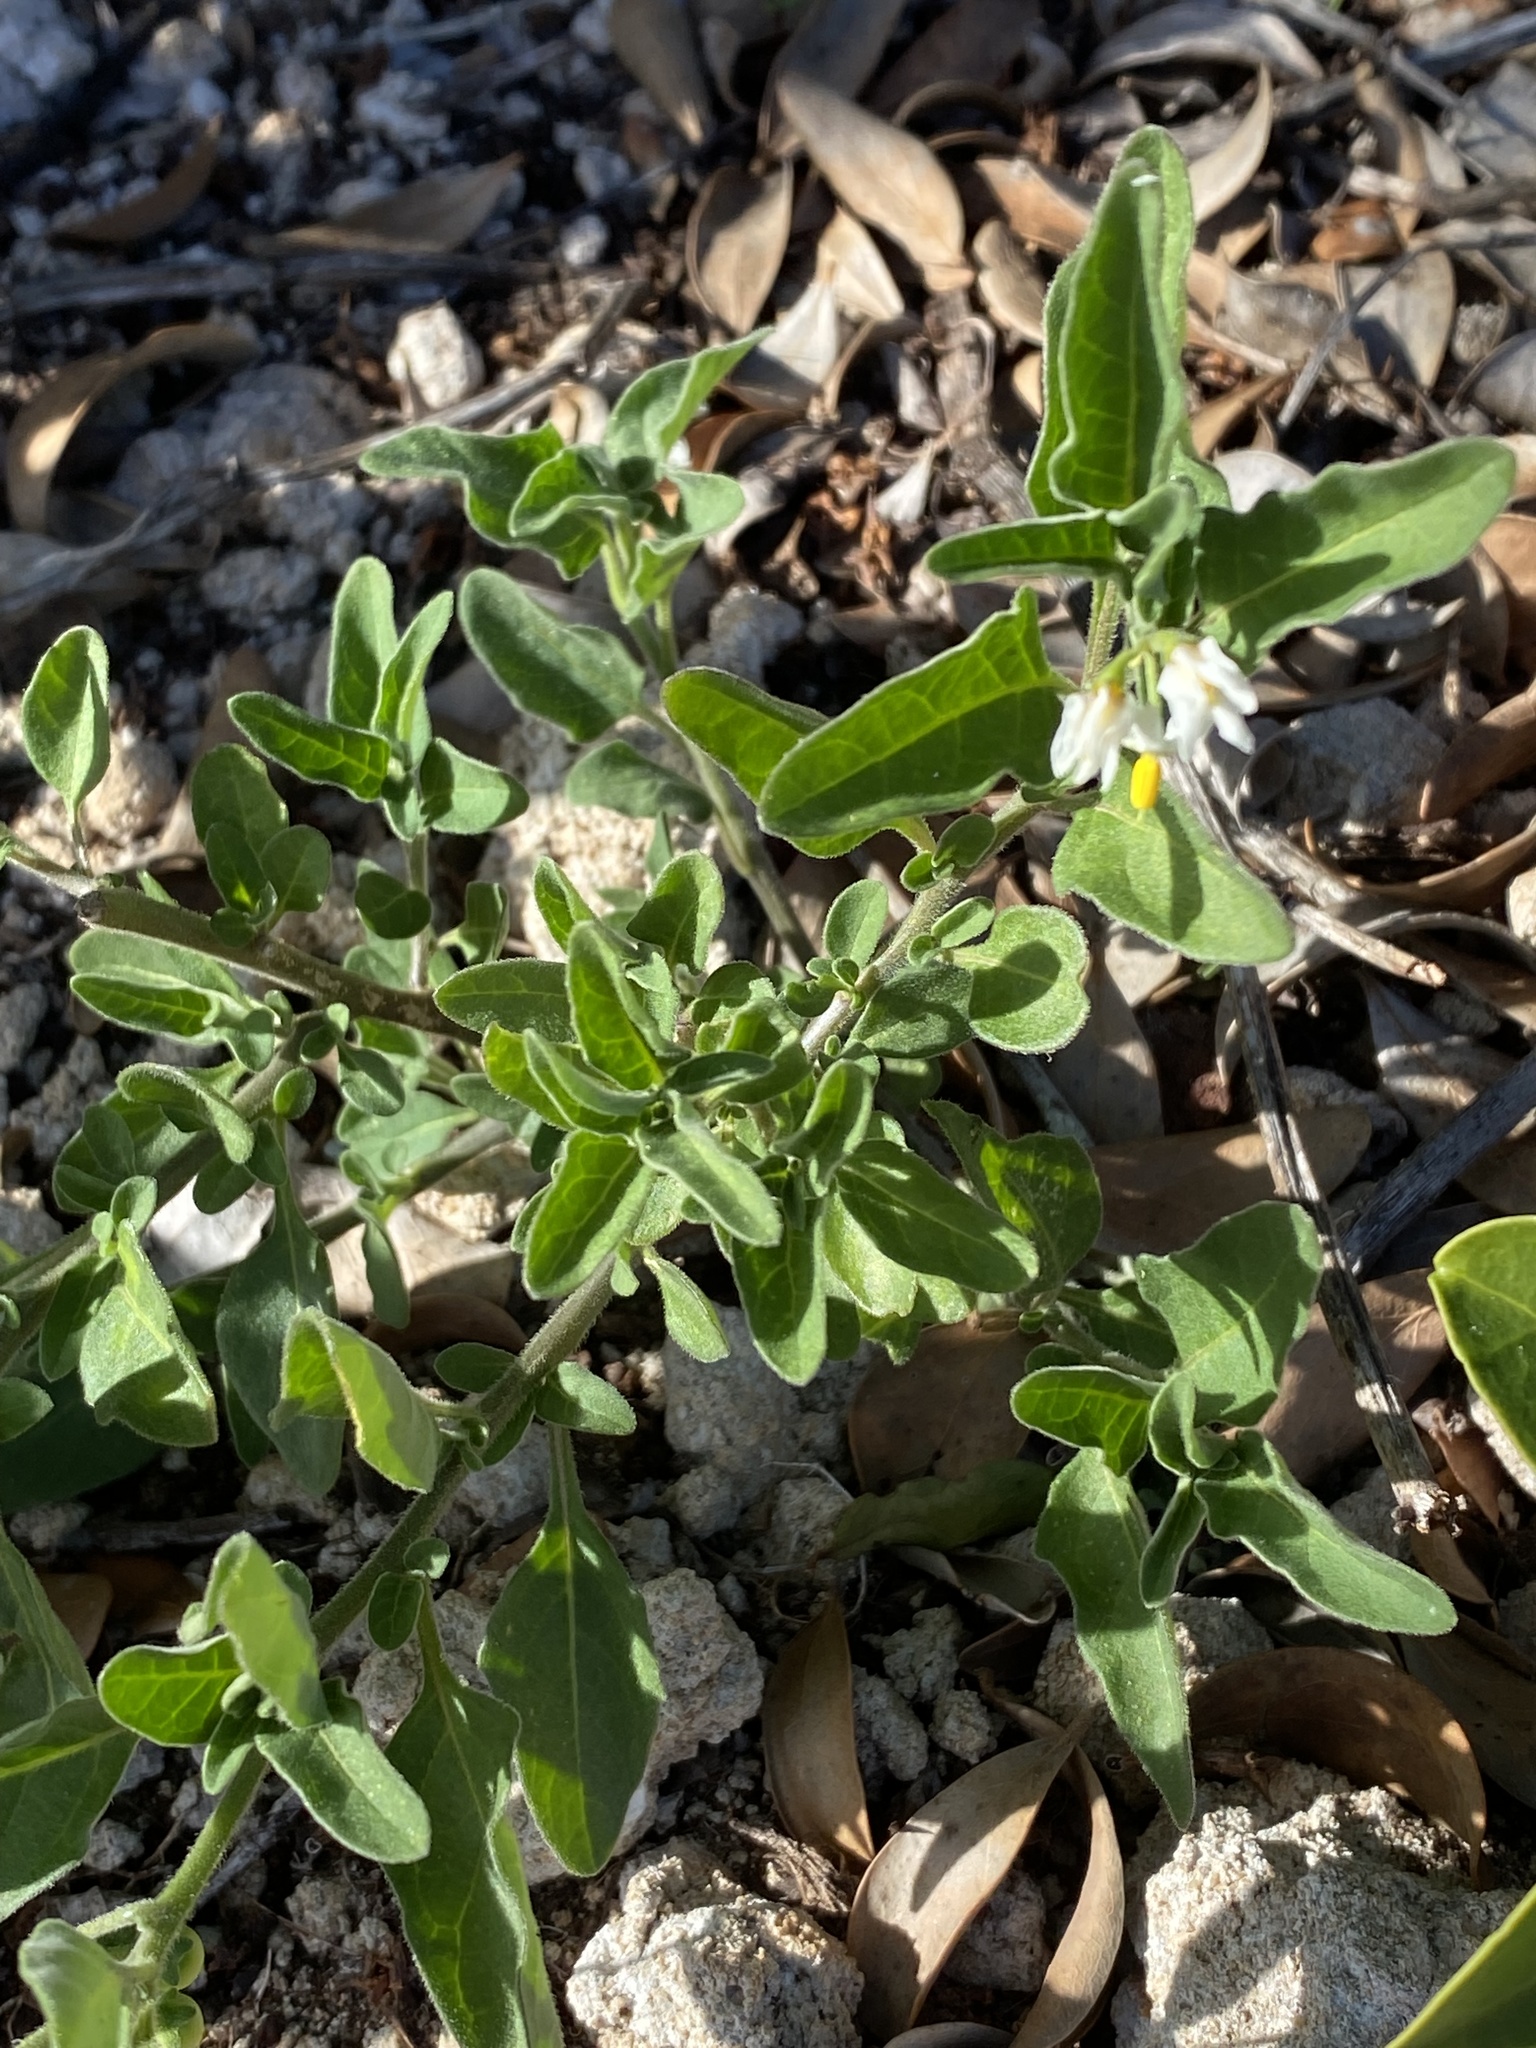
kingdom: Plantae
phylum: Tracheophyta
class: Magnoliopsida
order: Solanales
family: Solanaceae
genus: Solanum
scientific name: Solanum chenopodioides
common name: Tall nightshade
